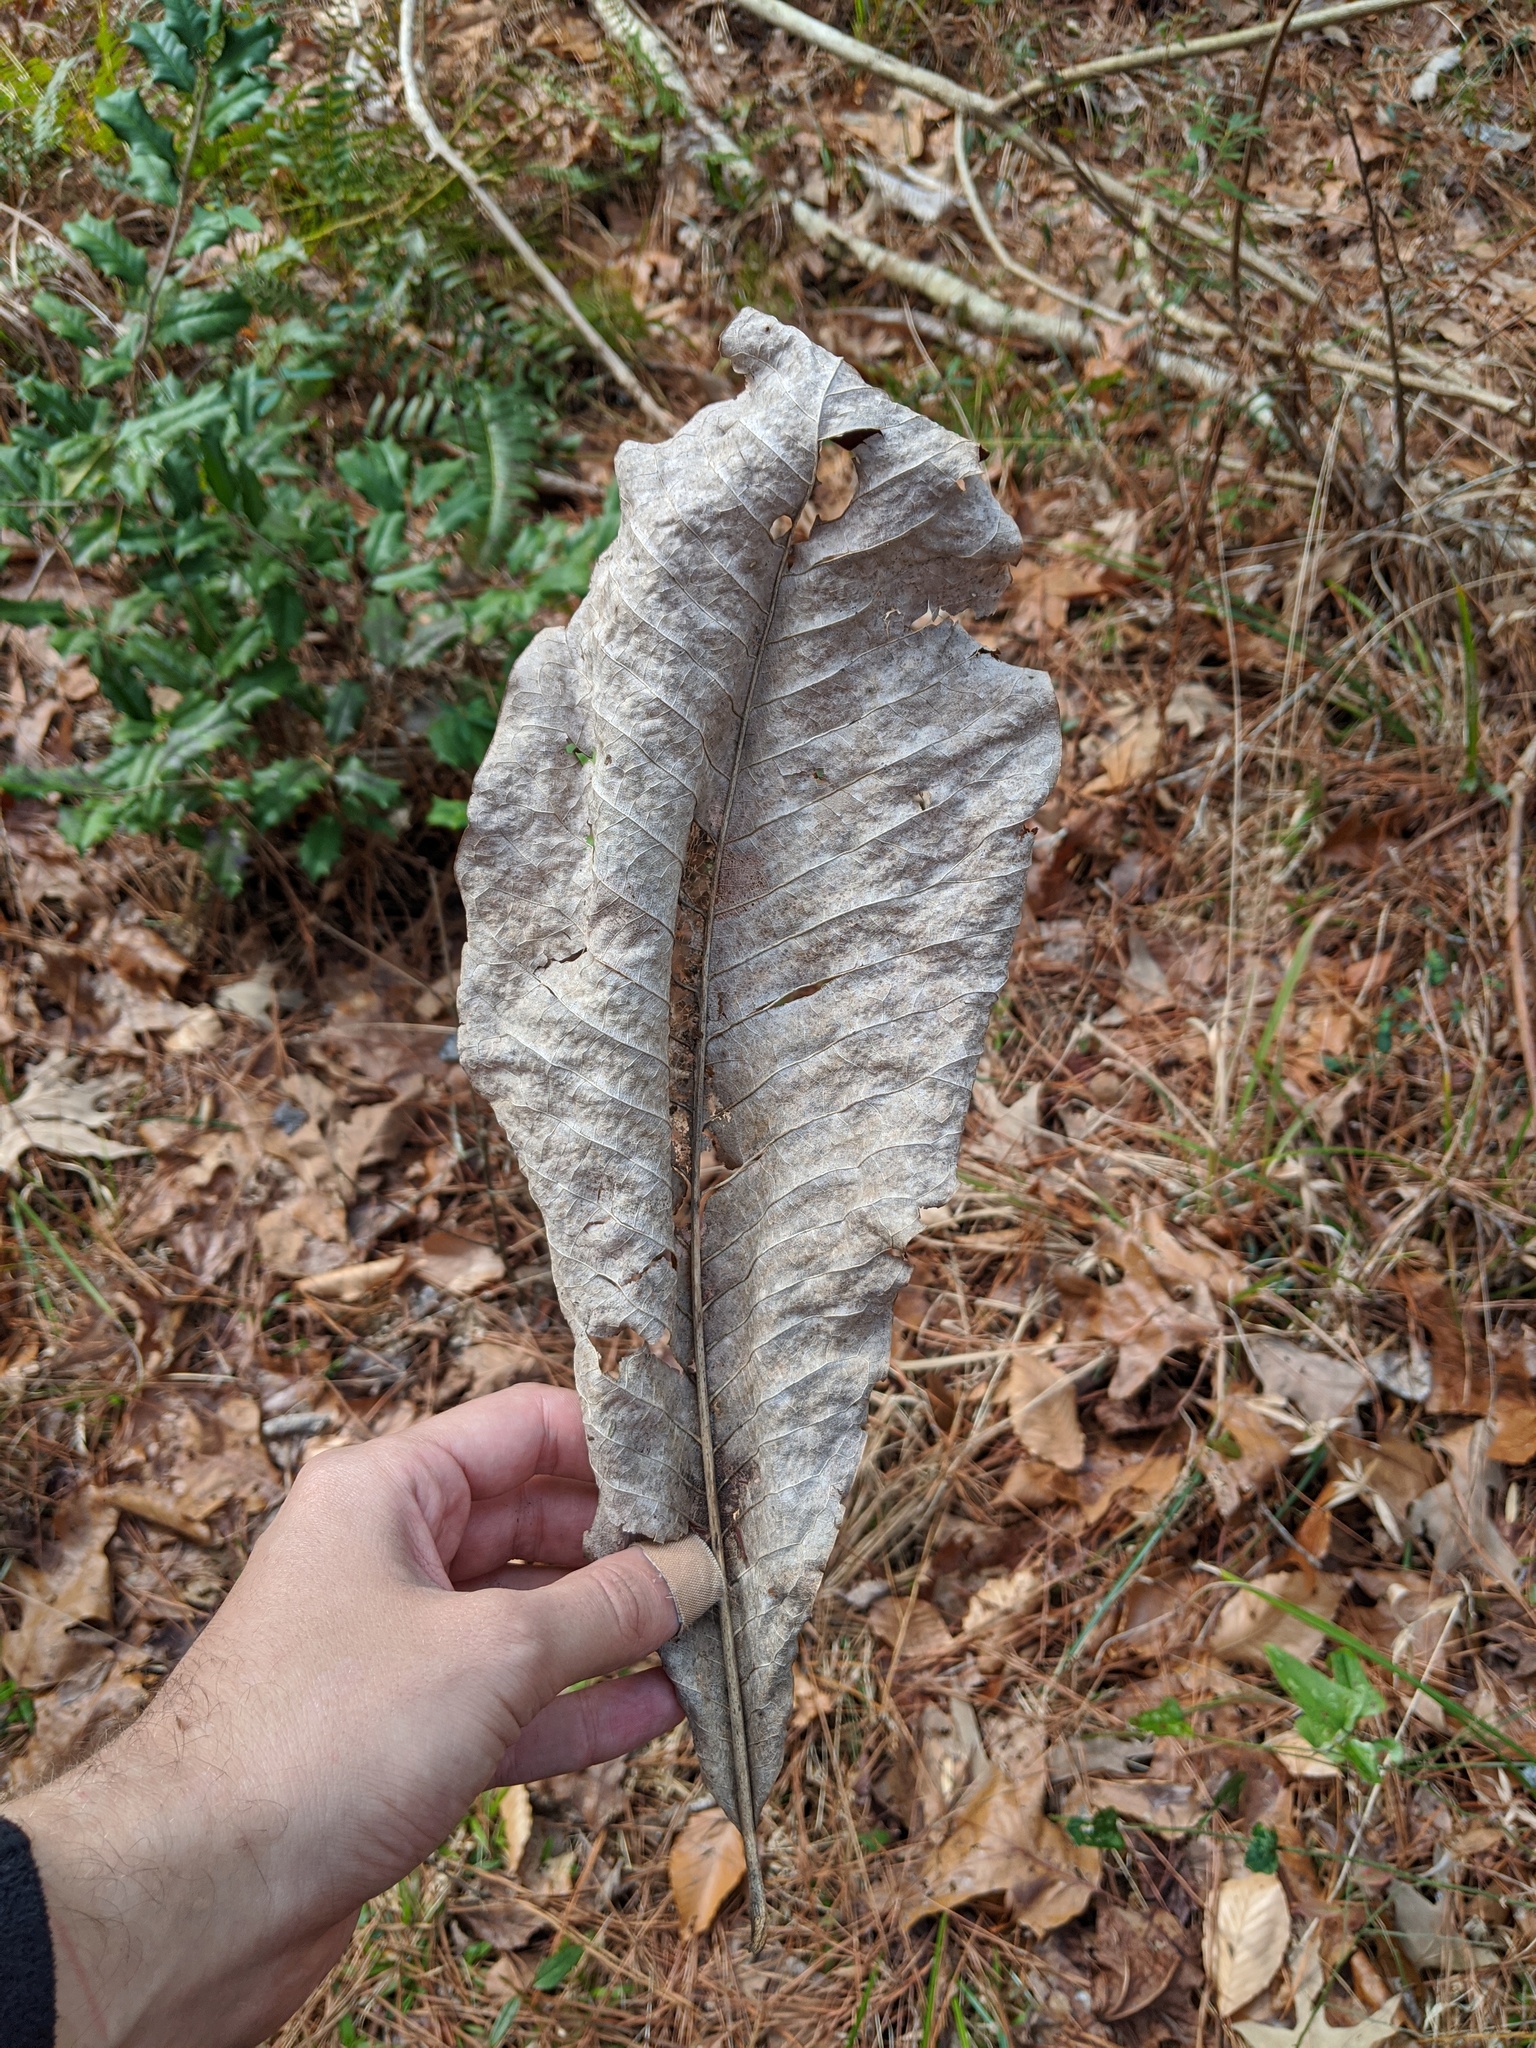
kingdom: Plantae
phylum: Tracheophyta
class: Magnoliopsida
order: Magnoliales
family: Magnoliaceae
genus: Magnolia
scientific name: Magnolia tripetala
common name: Umbrella magnolia
